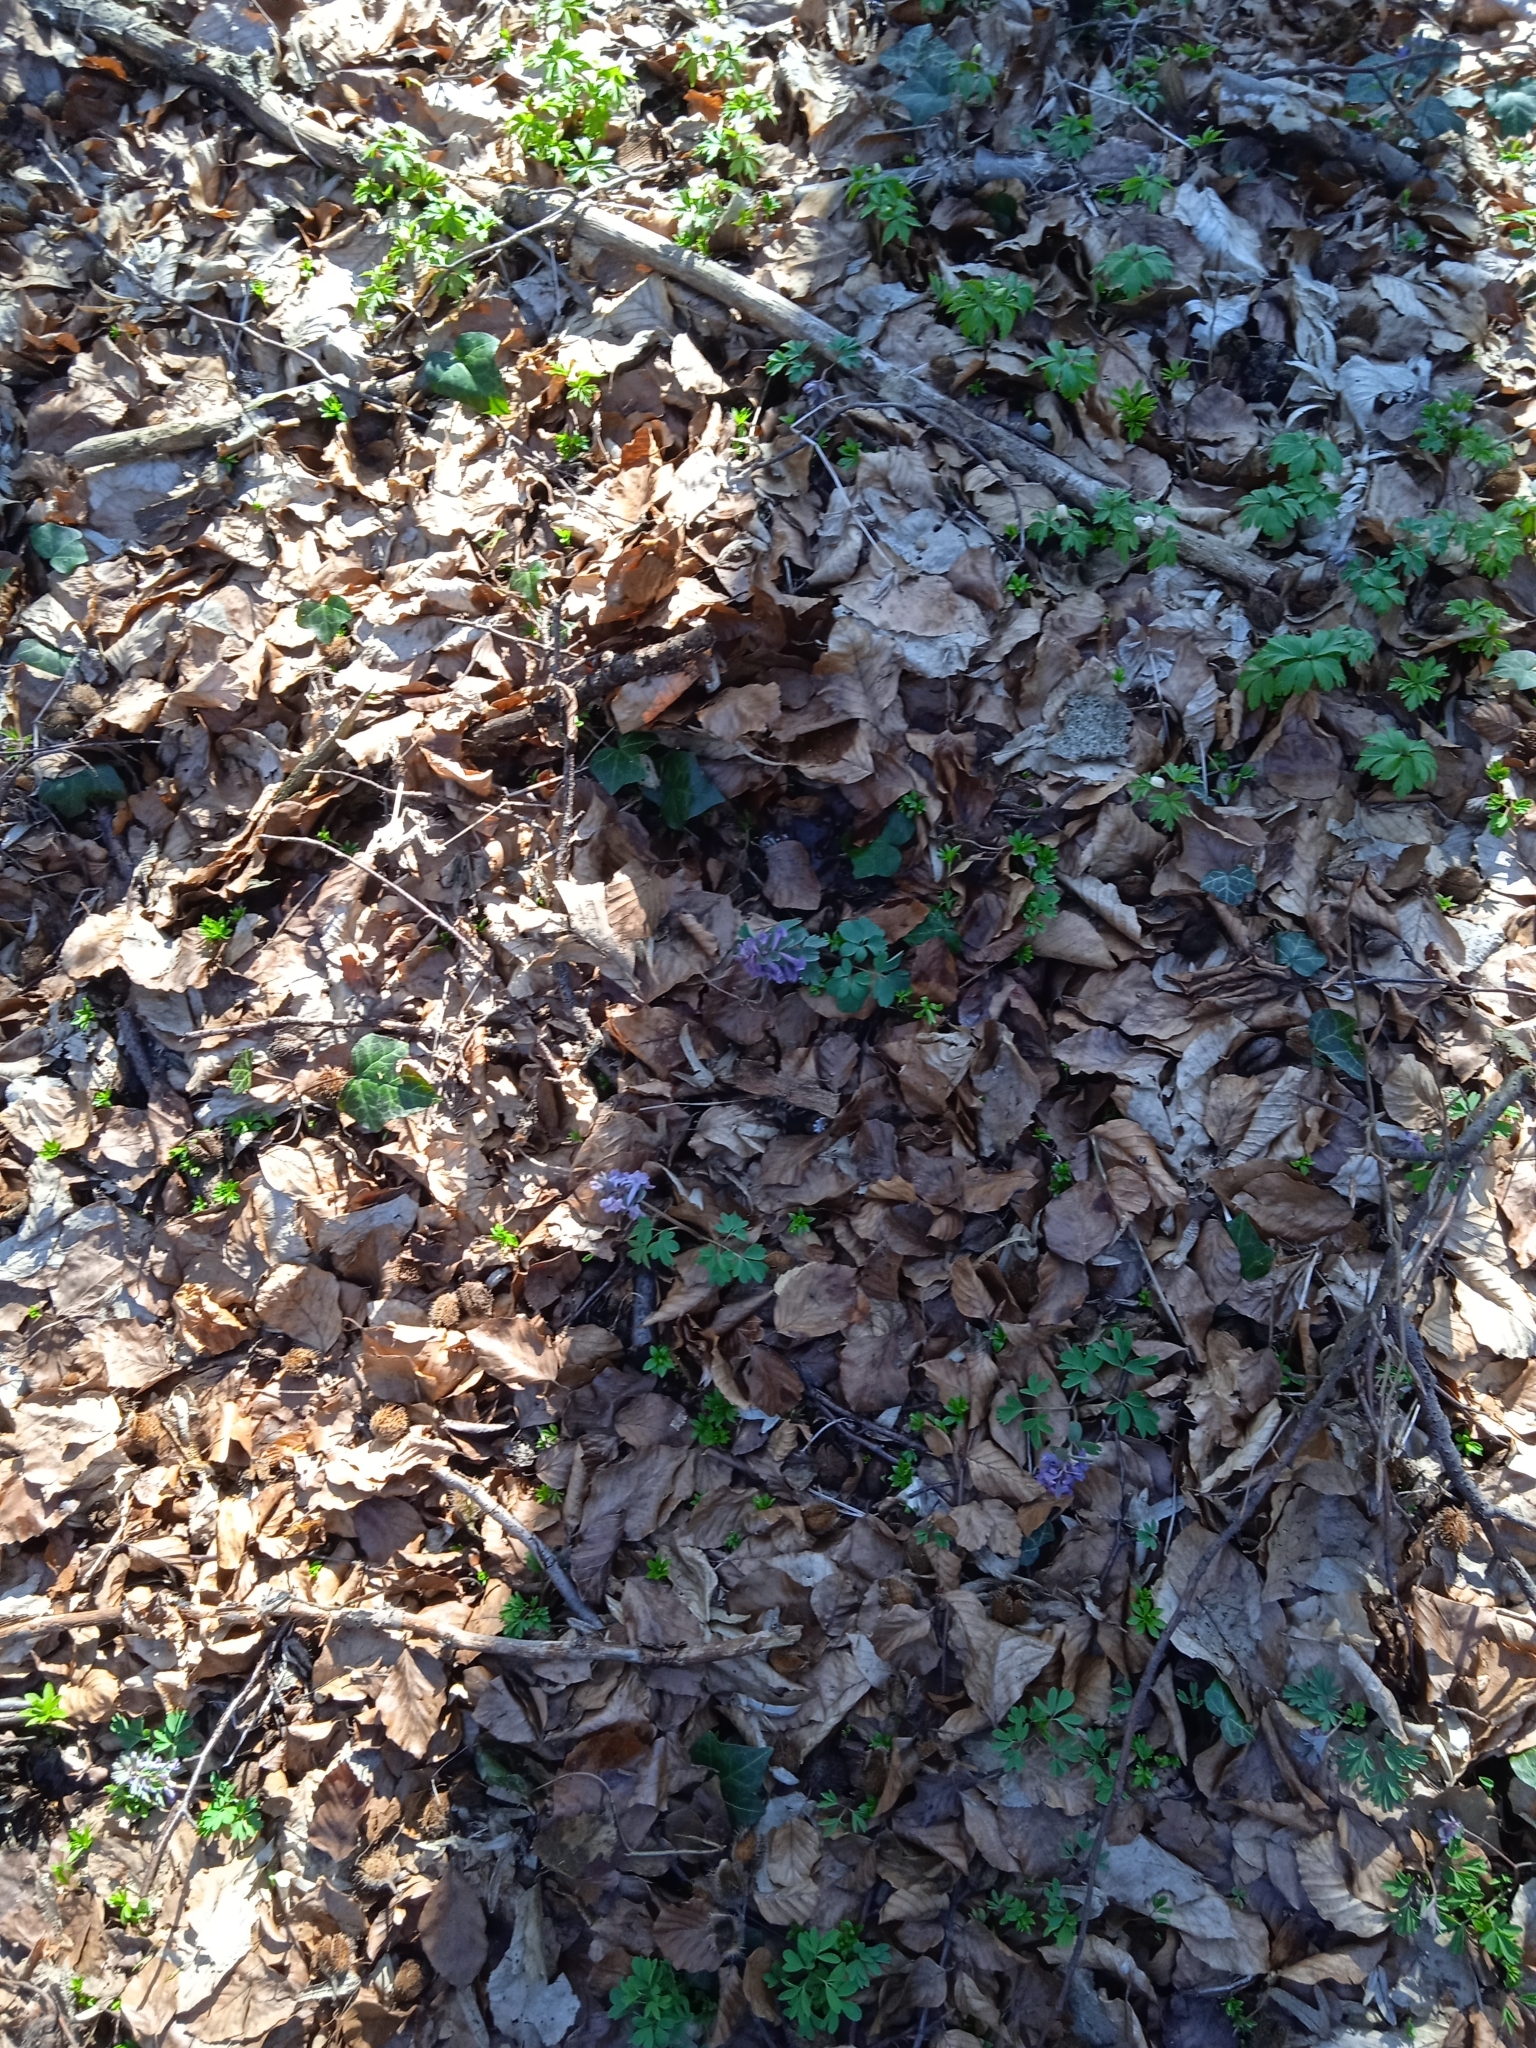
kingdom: Plantae
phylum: Tracheophyta
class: Magnoliopsida
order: Ranunculales
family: Papaveraceae
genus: Corydalis
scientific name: Corydalis solida
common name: Bird-in-a-bush
